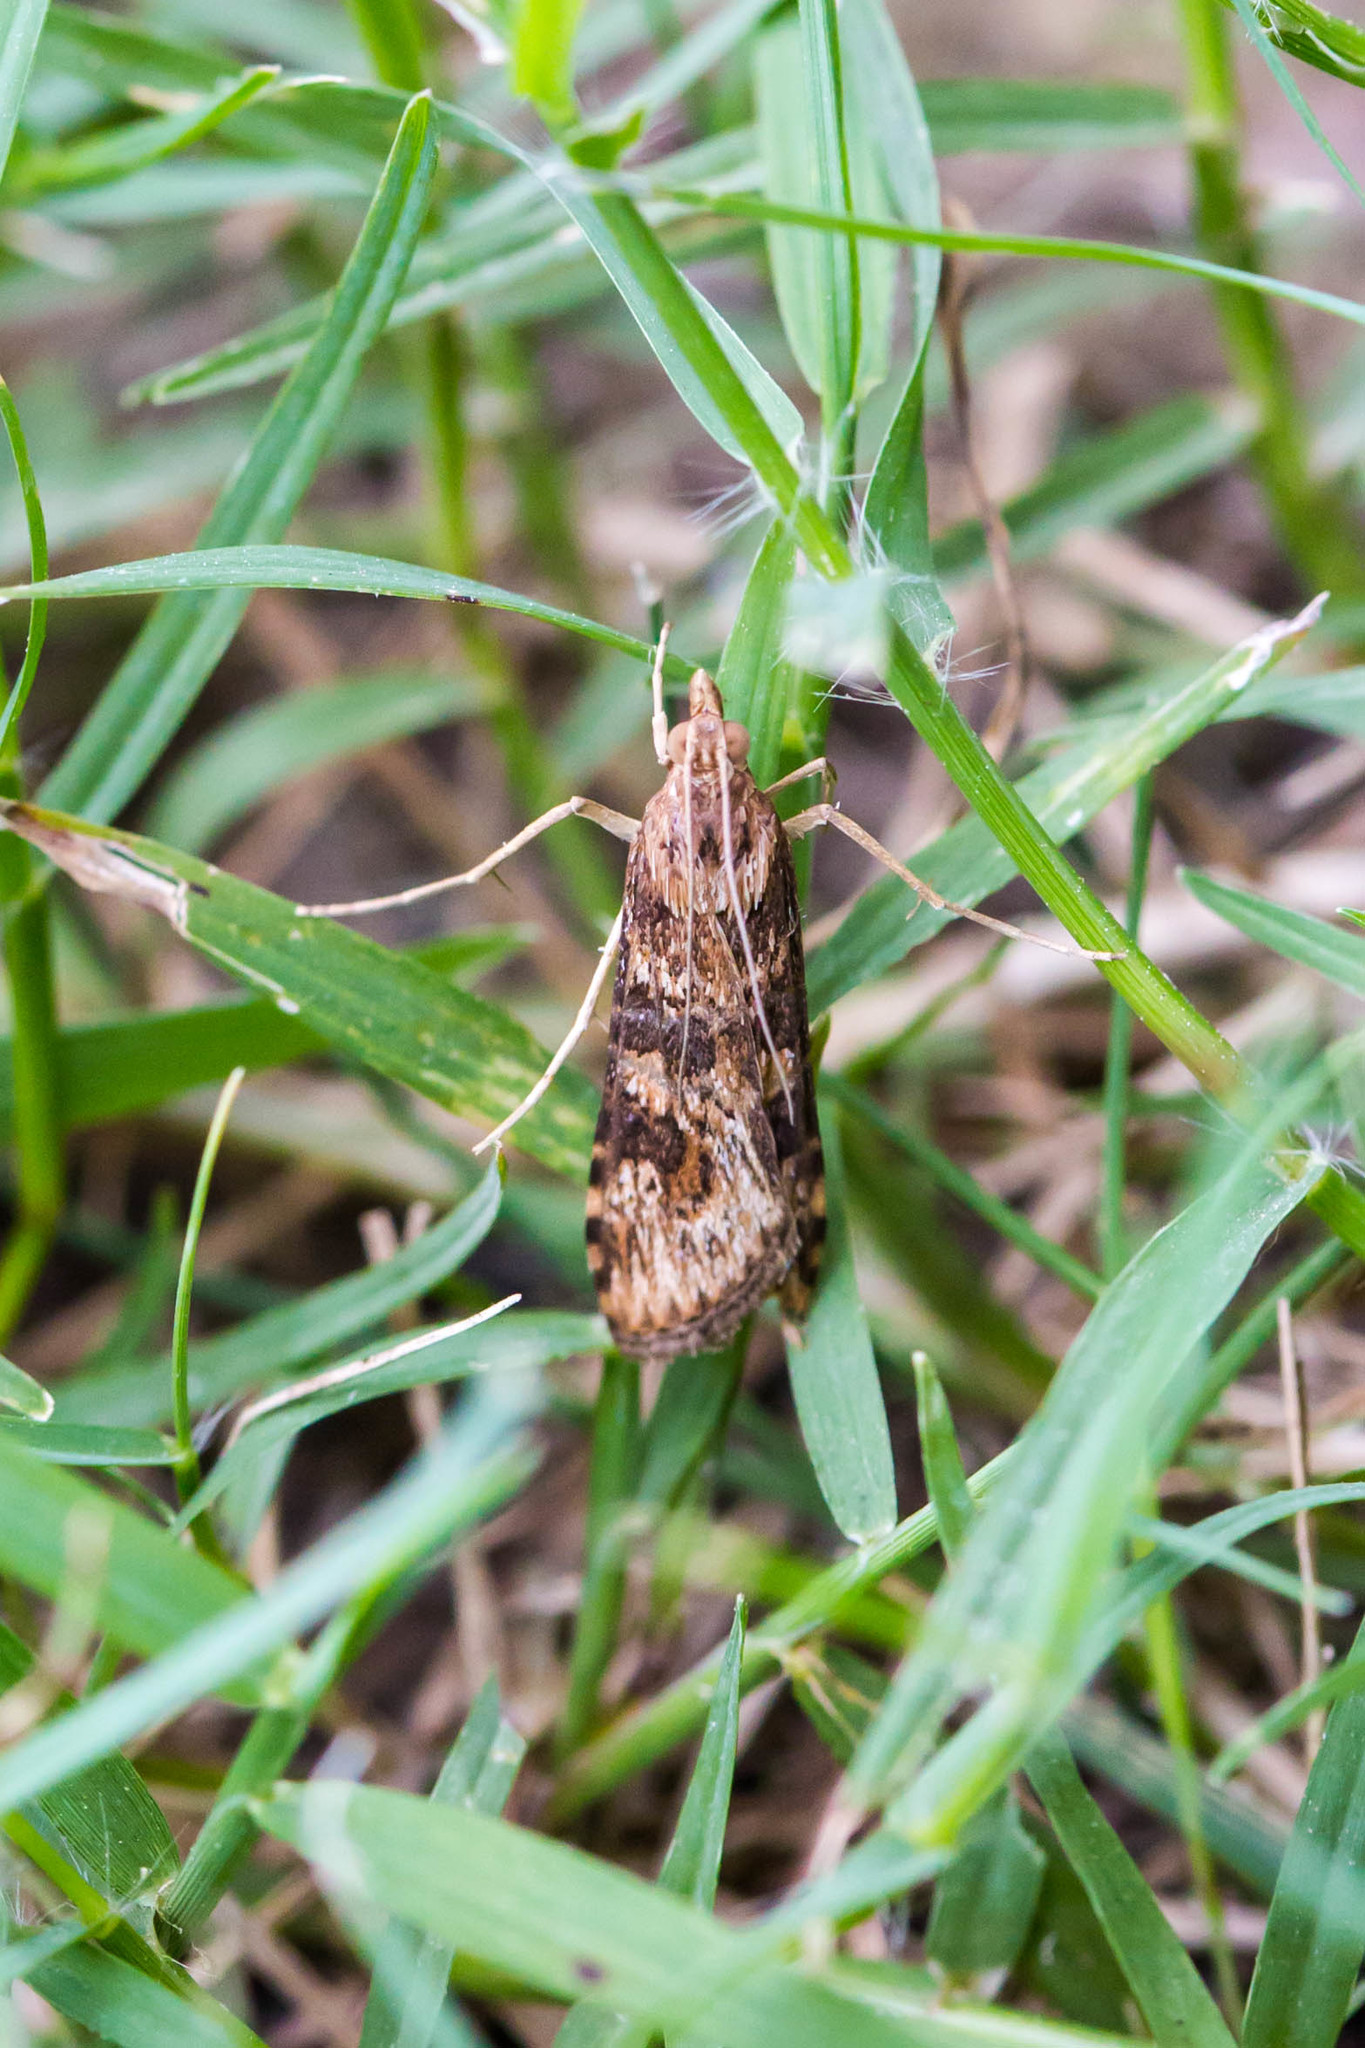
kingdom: Animalia
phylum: Arthropoda
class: Insecta
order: Lepidoptera
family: Crambidae
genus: Nomophila
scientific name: Nomophila nearctica
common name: American rush veneer
